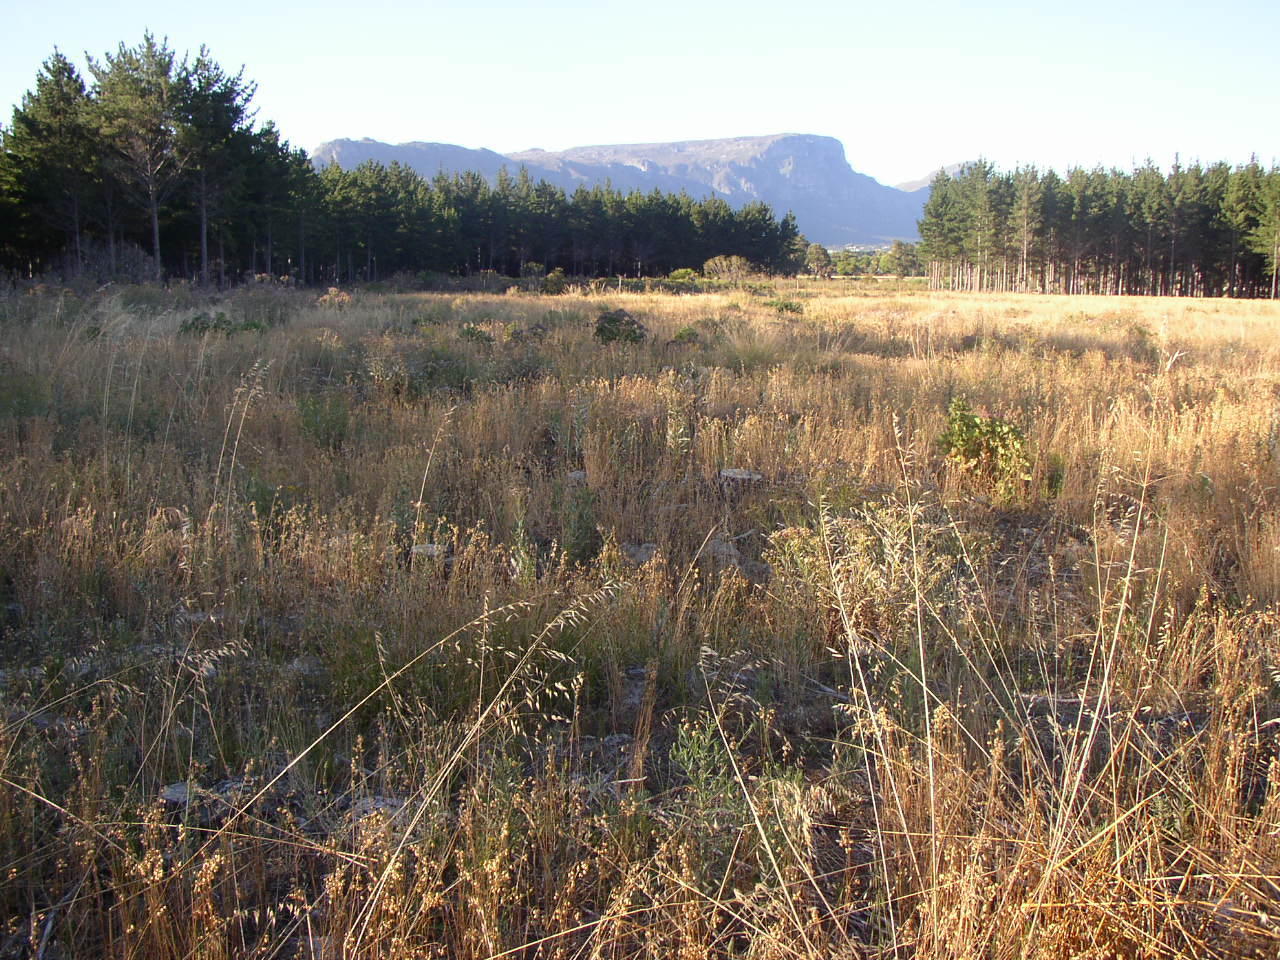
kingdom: Plantae
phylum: Tracheophyta
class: Liliopsida
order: Poales
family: Poaceae
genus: Avena
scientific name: Avena fatua
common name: Wild oat
